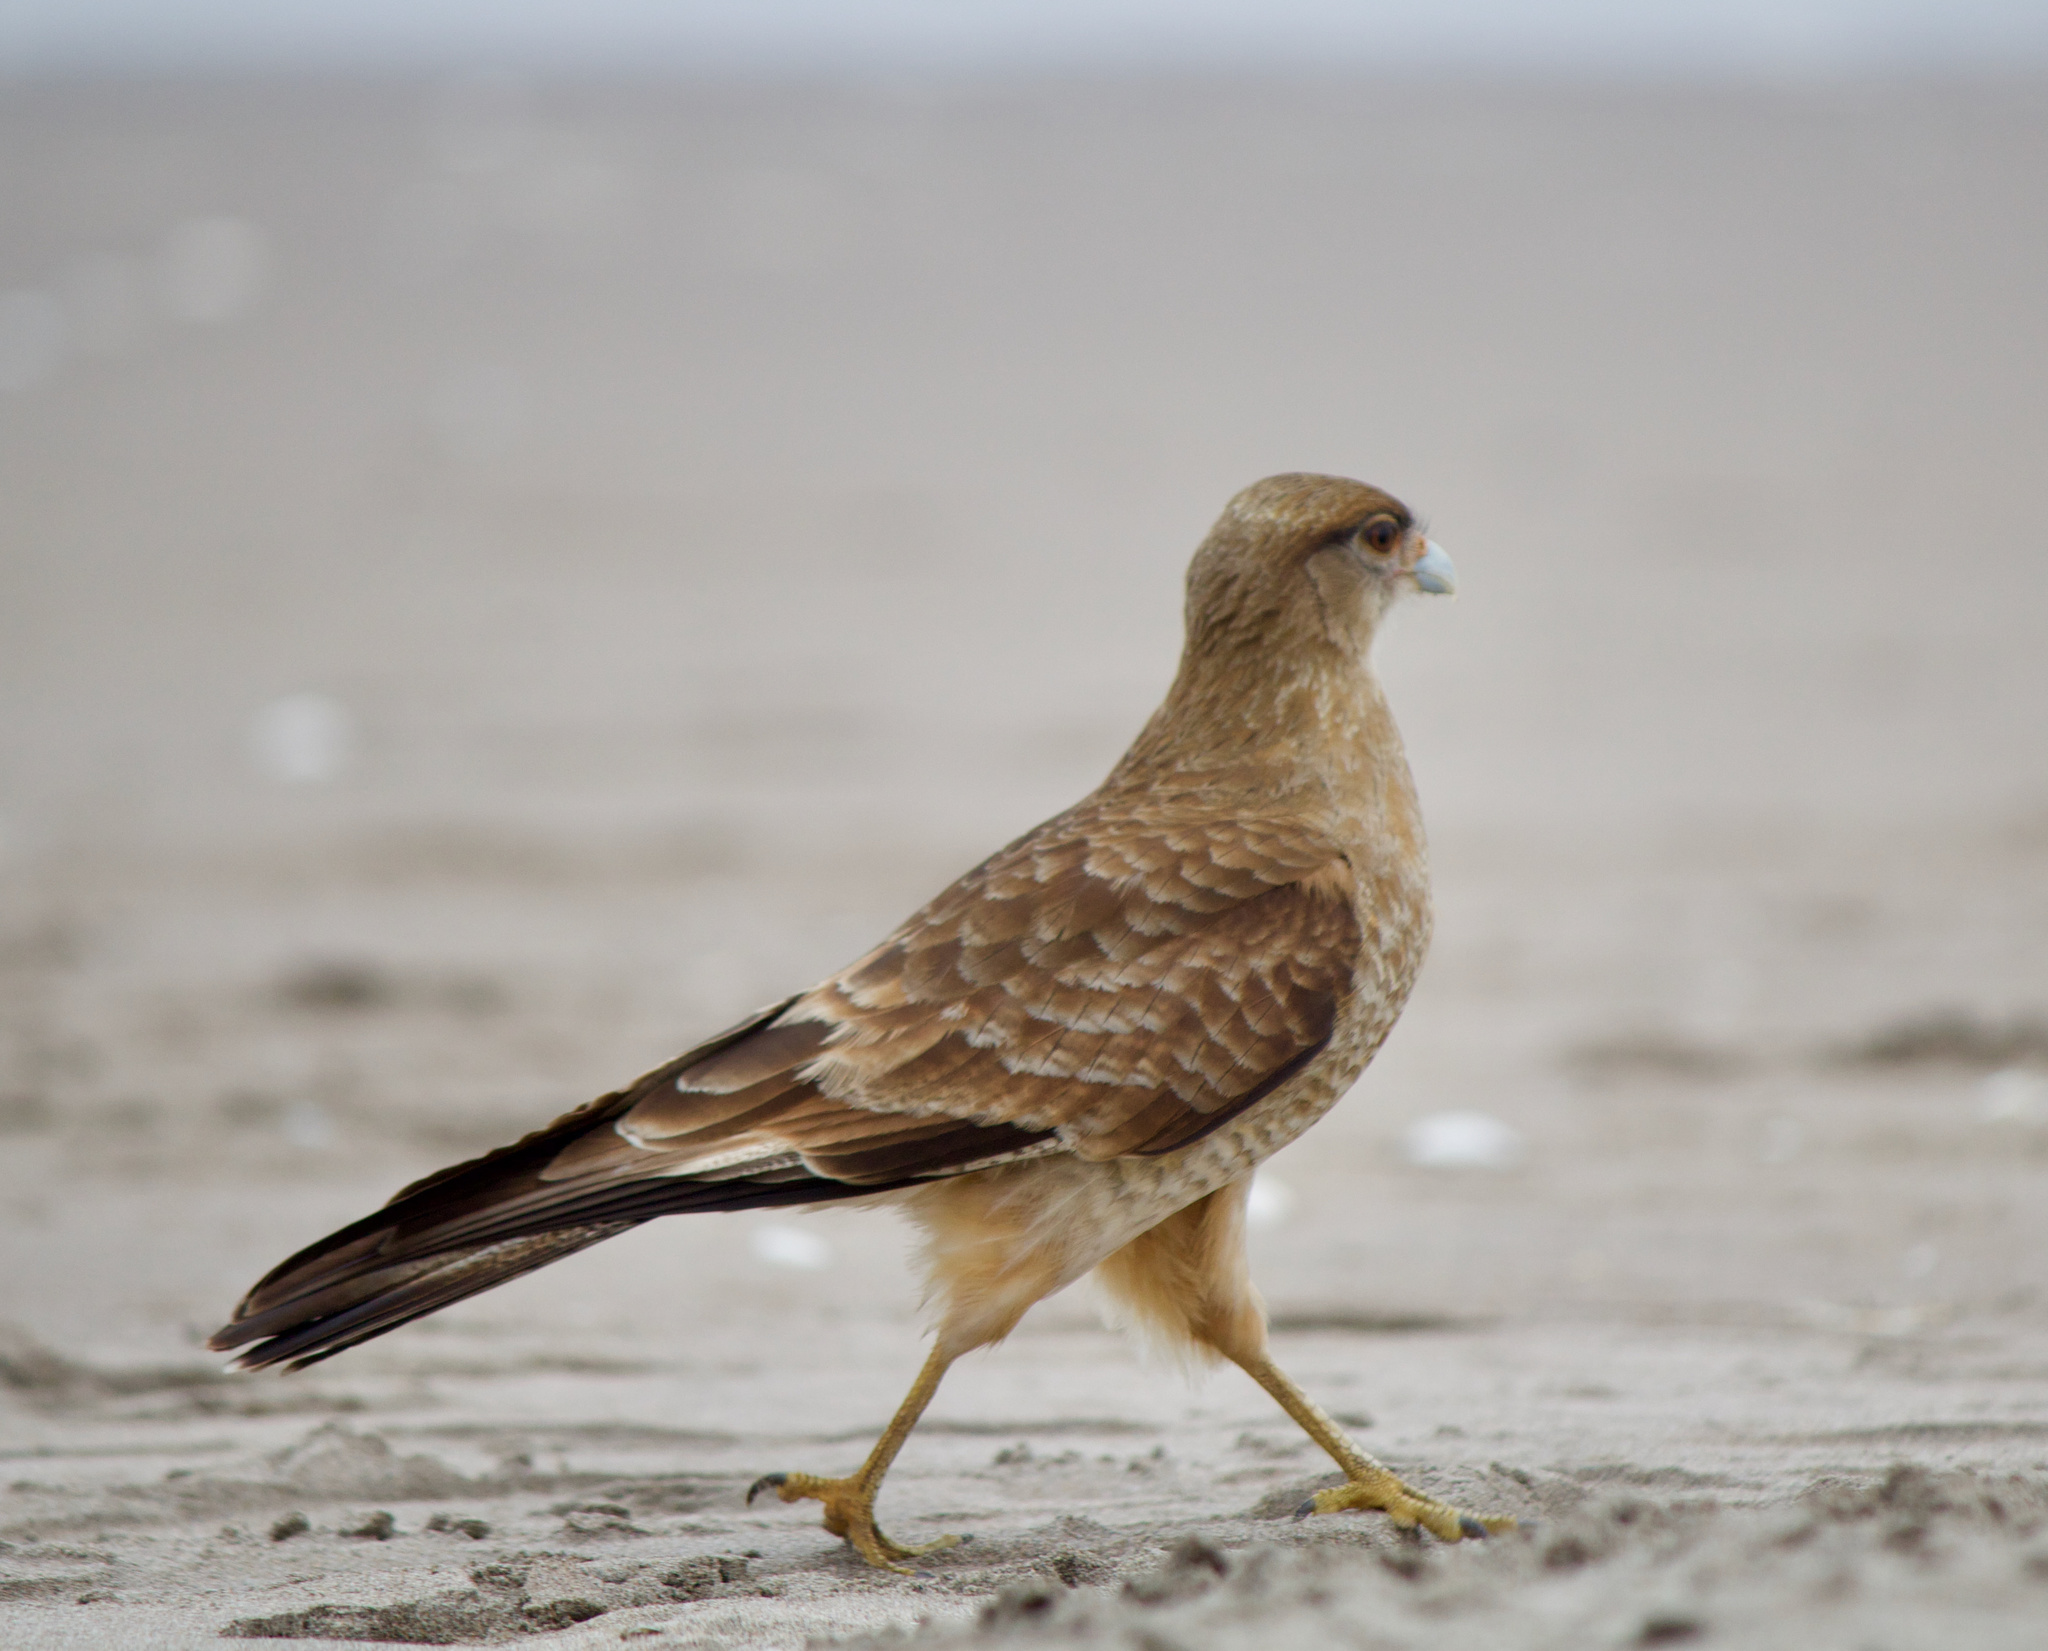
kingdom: Animalia
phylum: Chordata
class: Aves
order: Falconiformes
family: Falconidae
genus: Daptrius
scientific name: Daptrius
